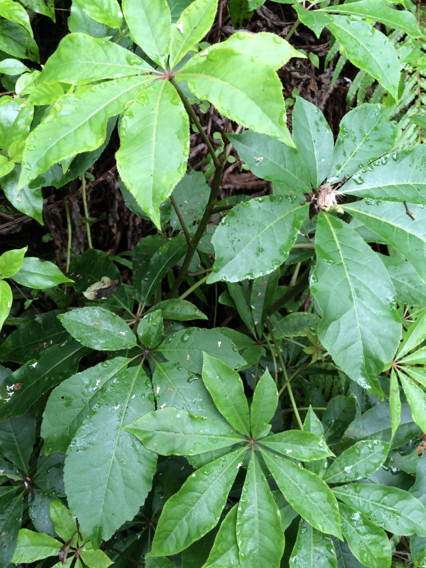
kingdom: Plantae
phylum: Tracheophyta
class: Magnoliopsida
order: Apiales
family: Araliaceae
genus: Schefflera
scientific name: Schefflera digitata
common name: Pate
